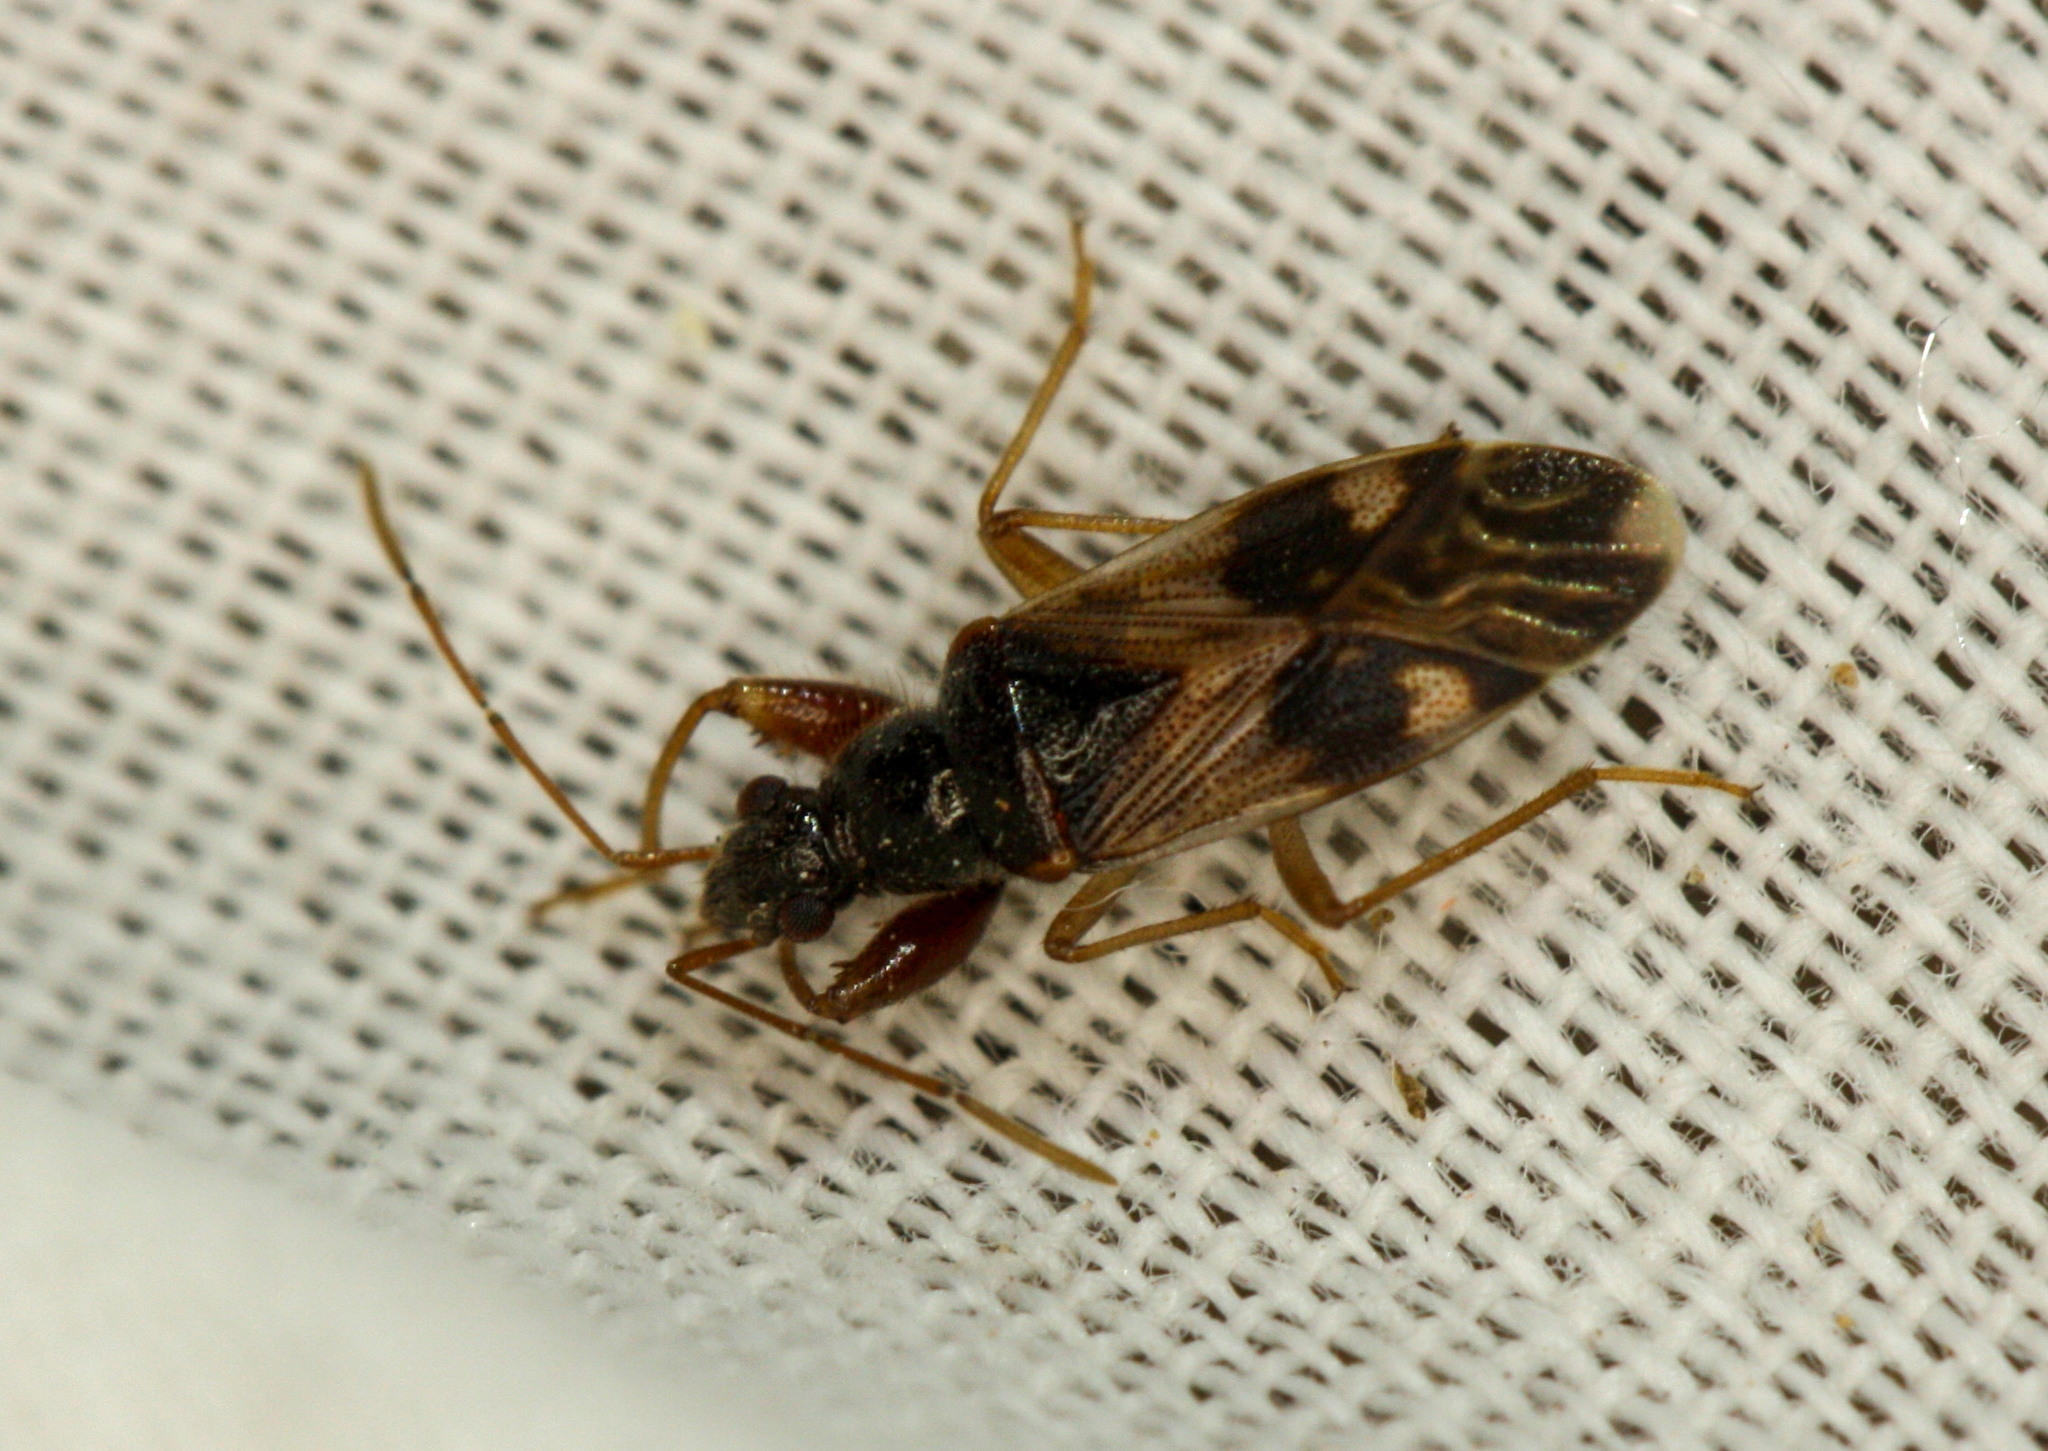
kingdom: Animalia
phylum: Arthropoda
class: Insecta
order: Hemiptera
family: Rhyparochromidae
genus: Pseudopamera
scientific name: Pseudopamera nitidula
